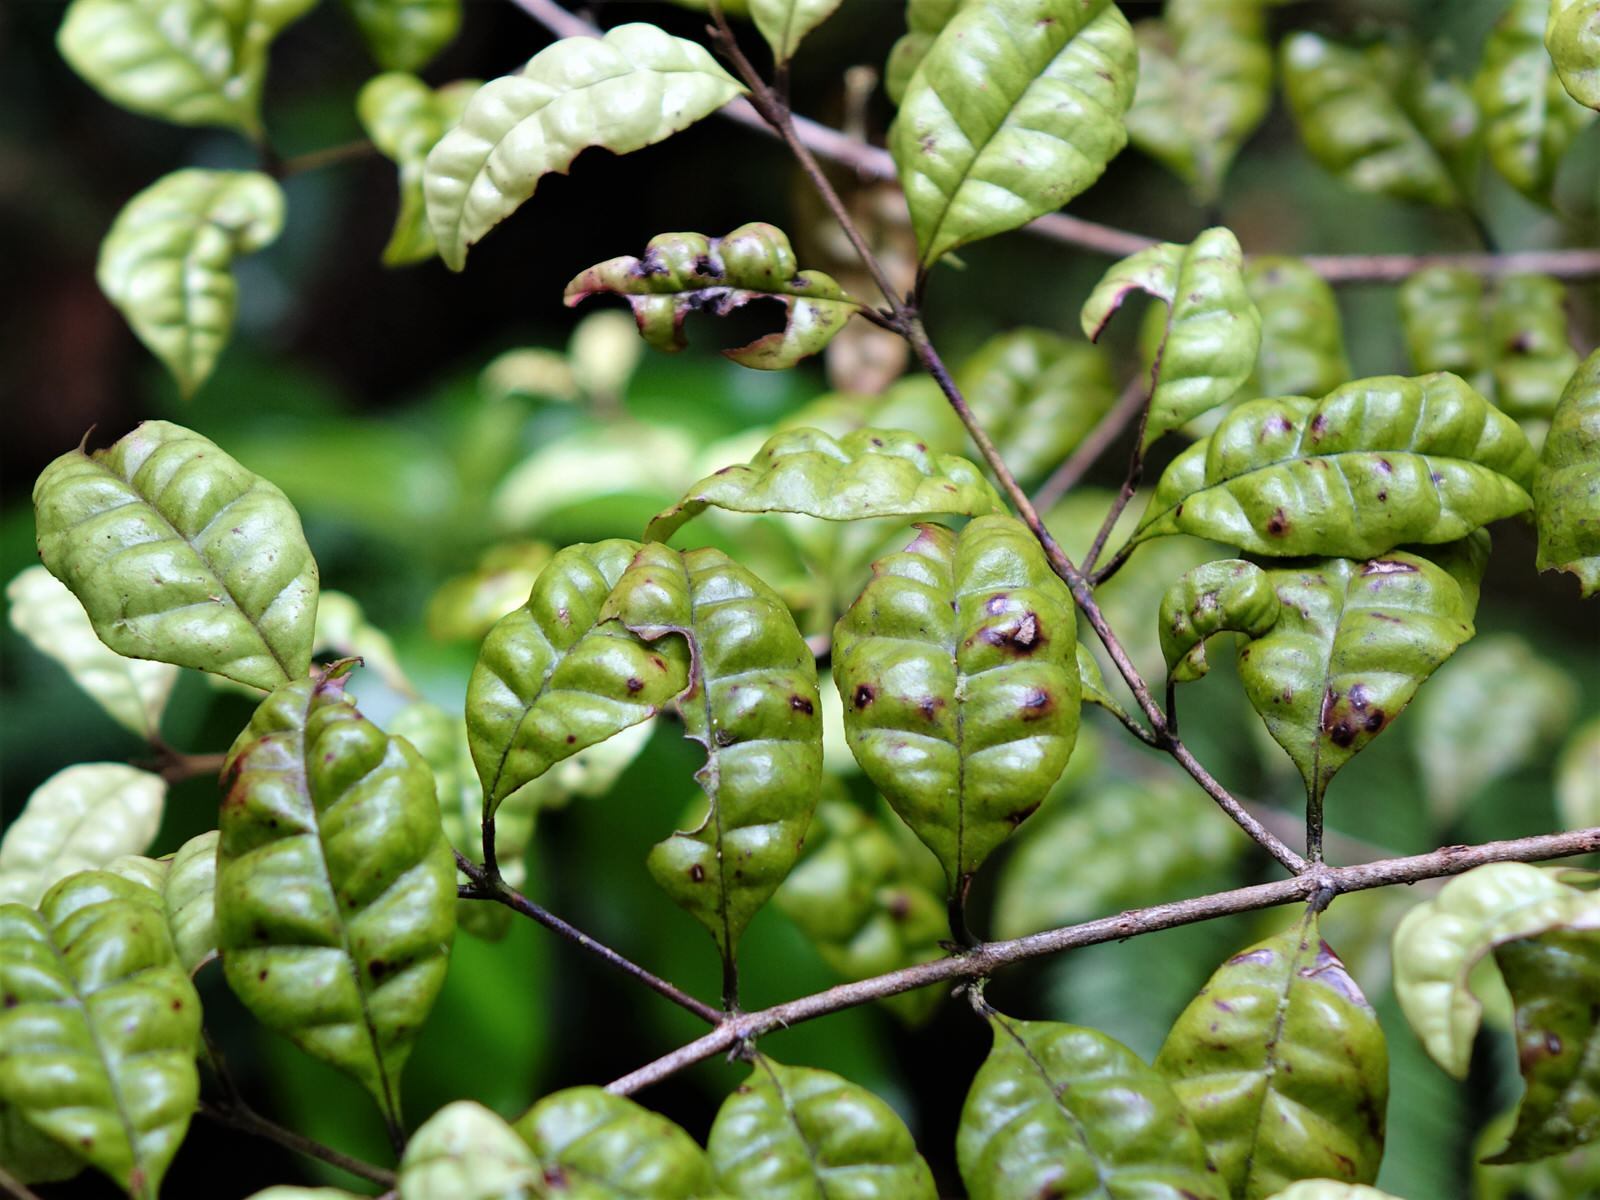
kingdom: Plantae
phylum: Tracheophyta
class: Magnoliopsida
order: Myrtales
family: Myrtaceae
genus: Lophomyrtus
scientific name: Lophomyrtus bullata
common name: Rama rama
